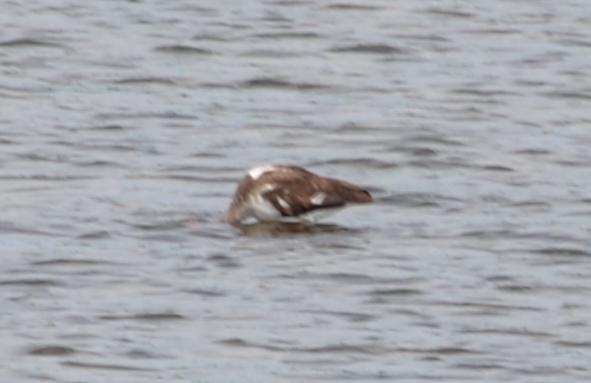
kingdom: Animalia
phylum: Chordata
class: Aves
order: Pelecaniformes
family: Threskiornithidae
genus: Eudocimus
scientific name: Eudocimus albus
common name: White ibis
